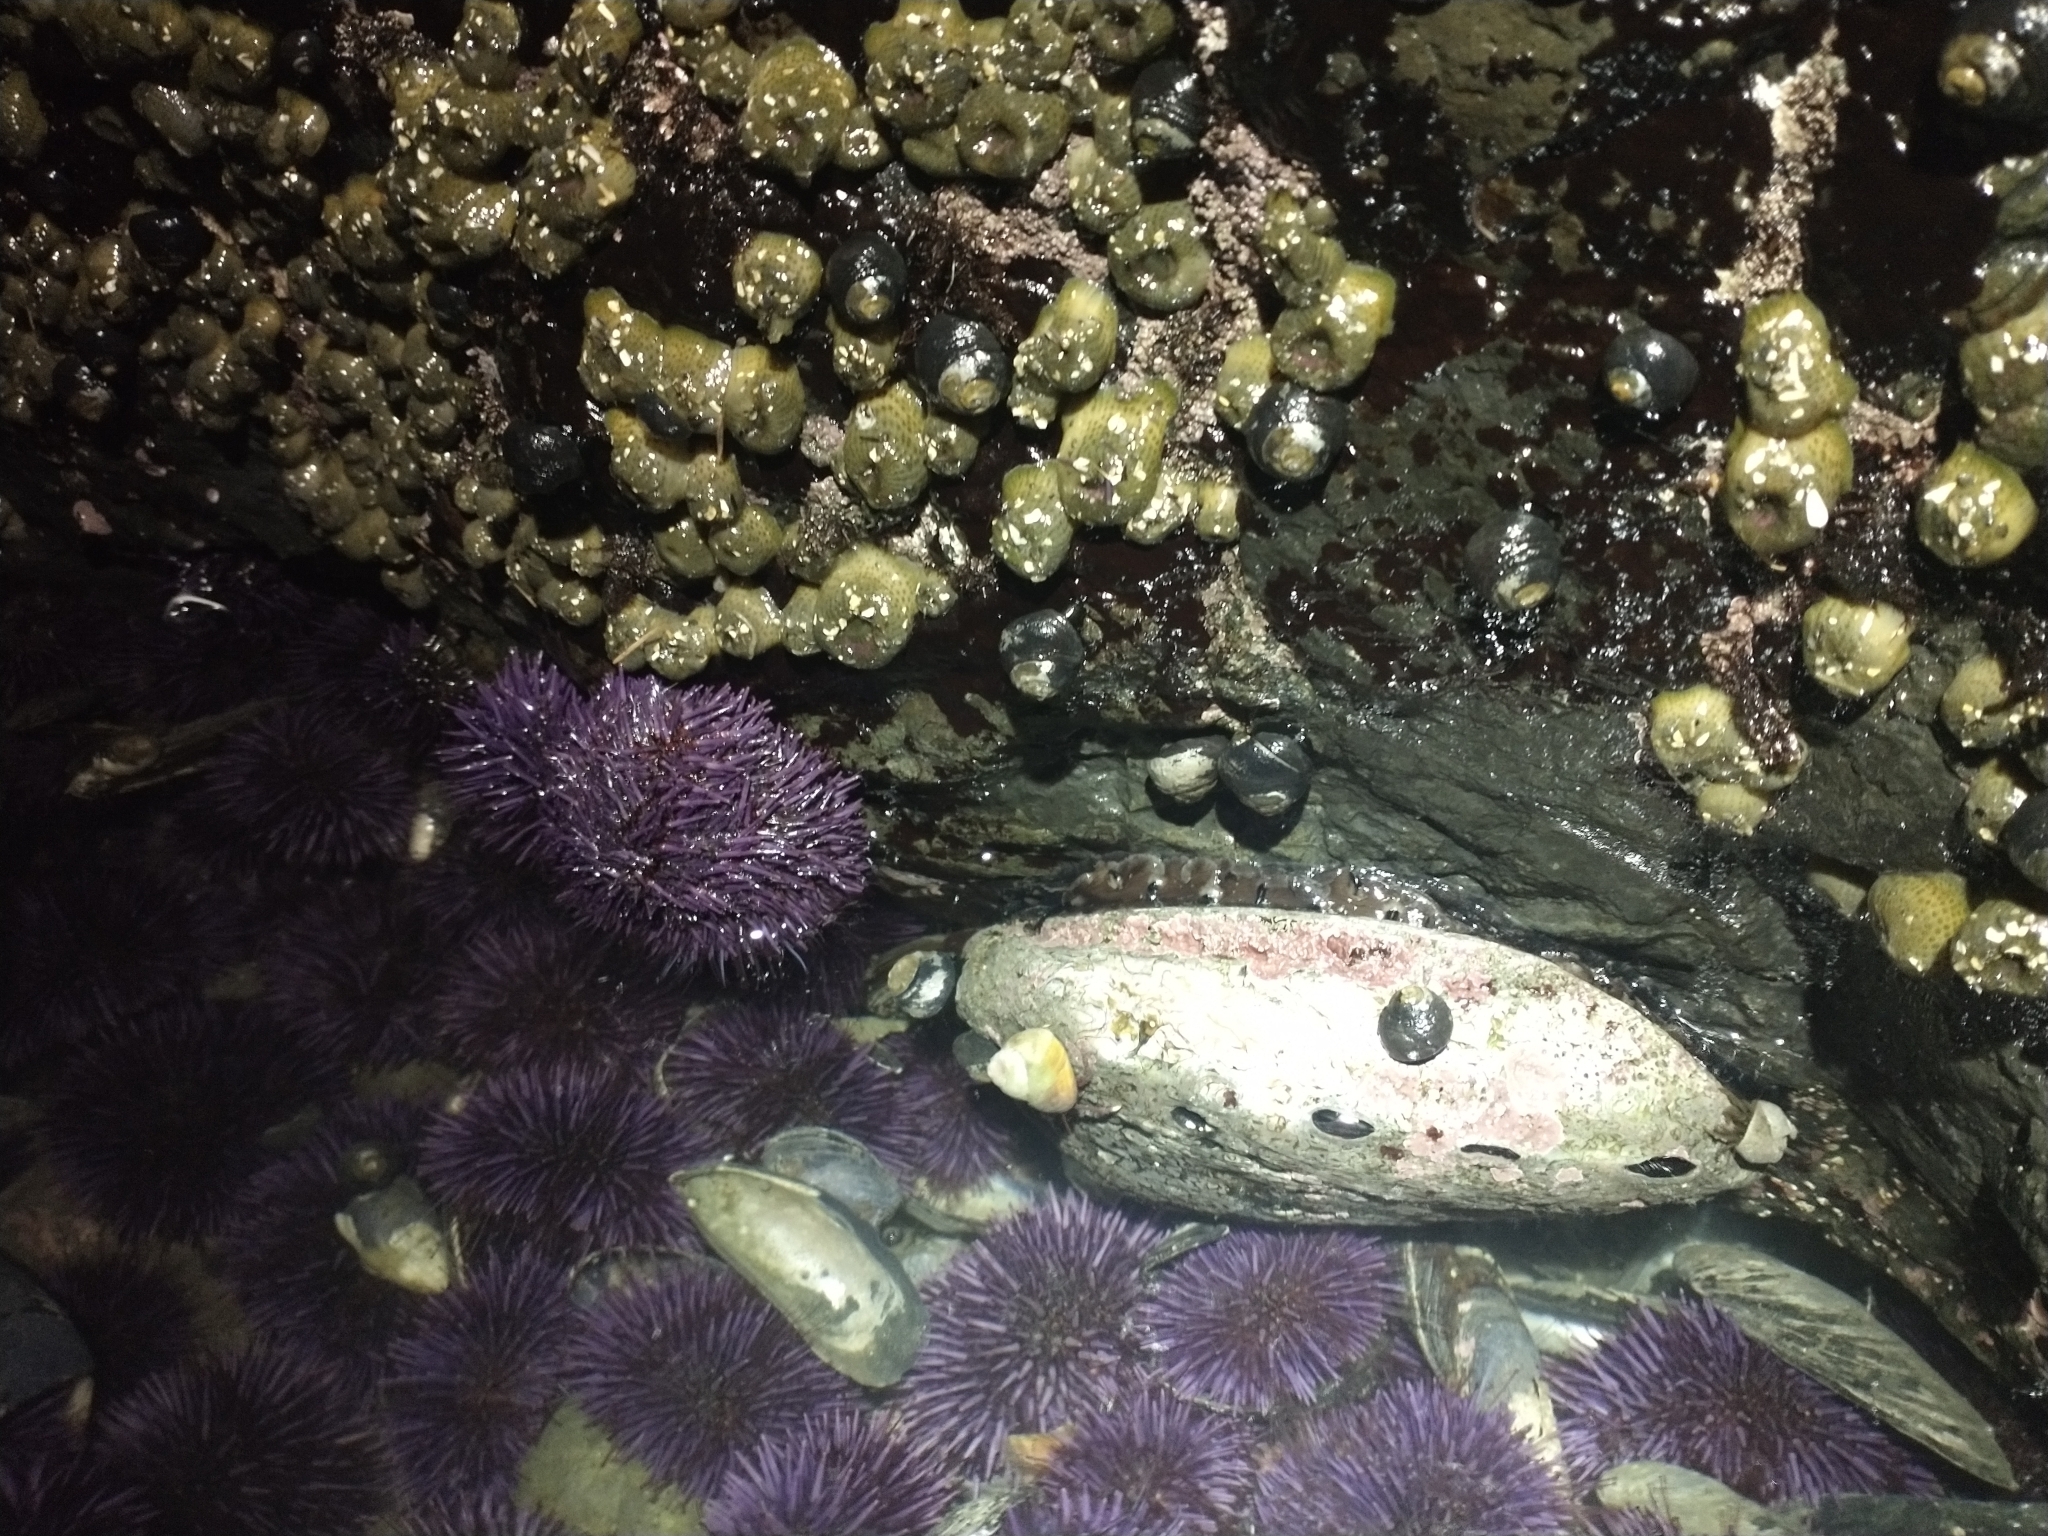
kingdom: Animalia
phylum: Cnidaria
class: Anthozoa
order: Actiniaria
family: Actiniidae
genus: Anthopleura
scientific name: Anthopleura elegantissima
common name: Clonal anemone
